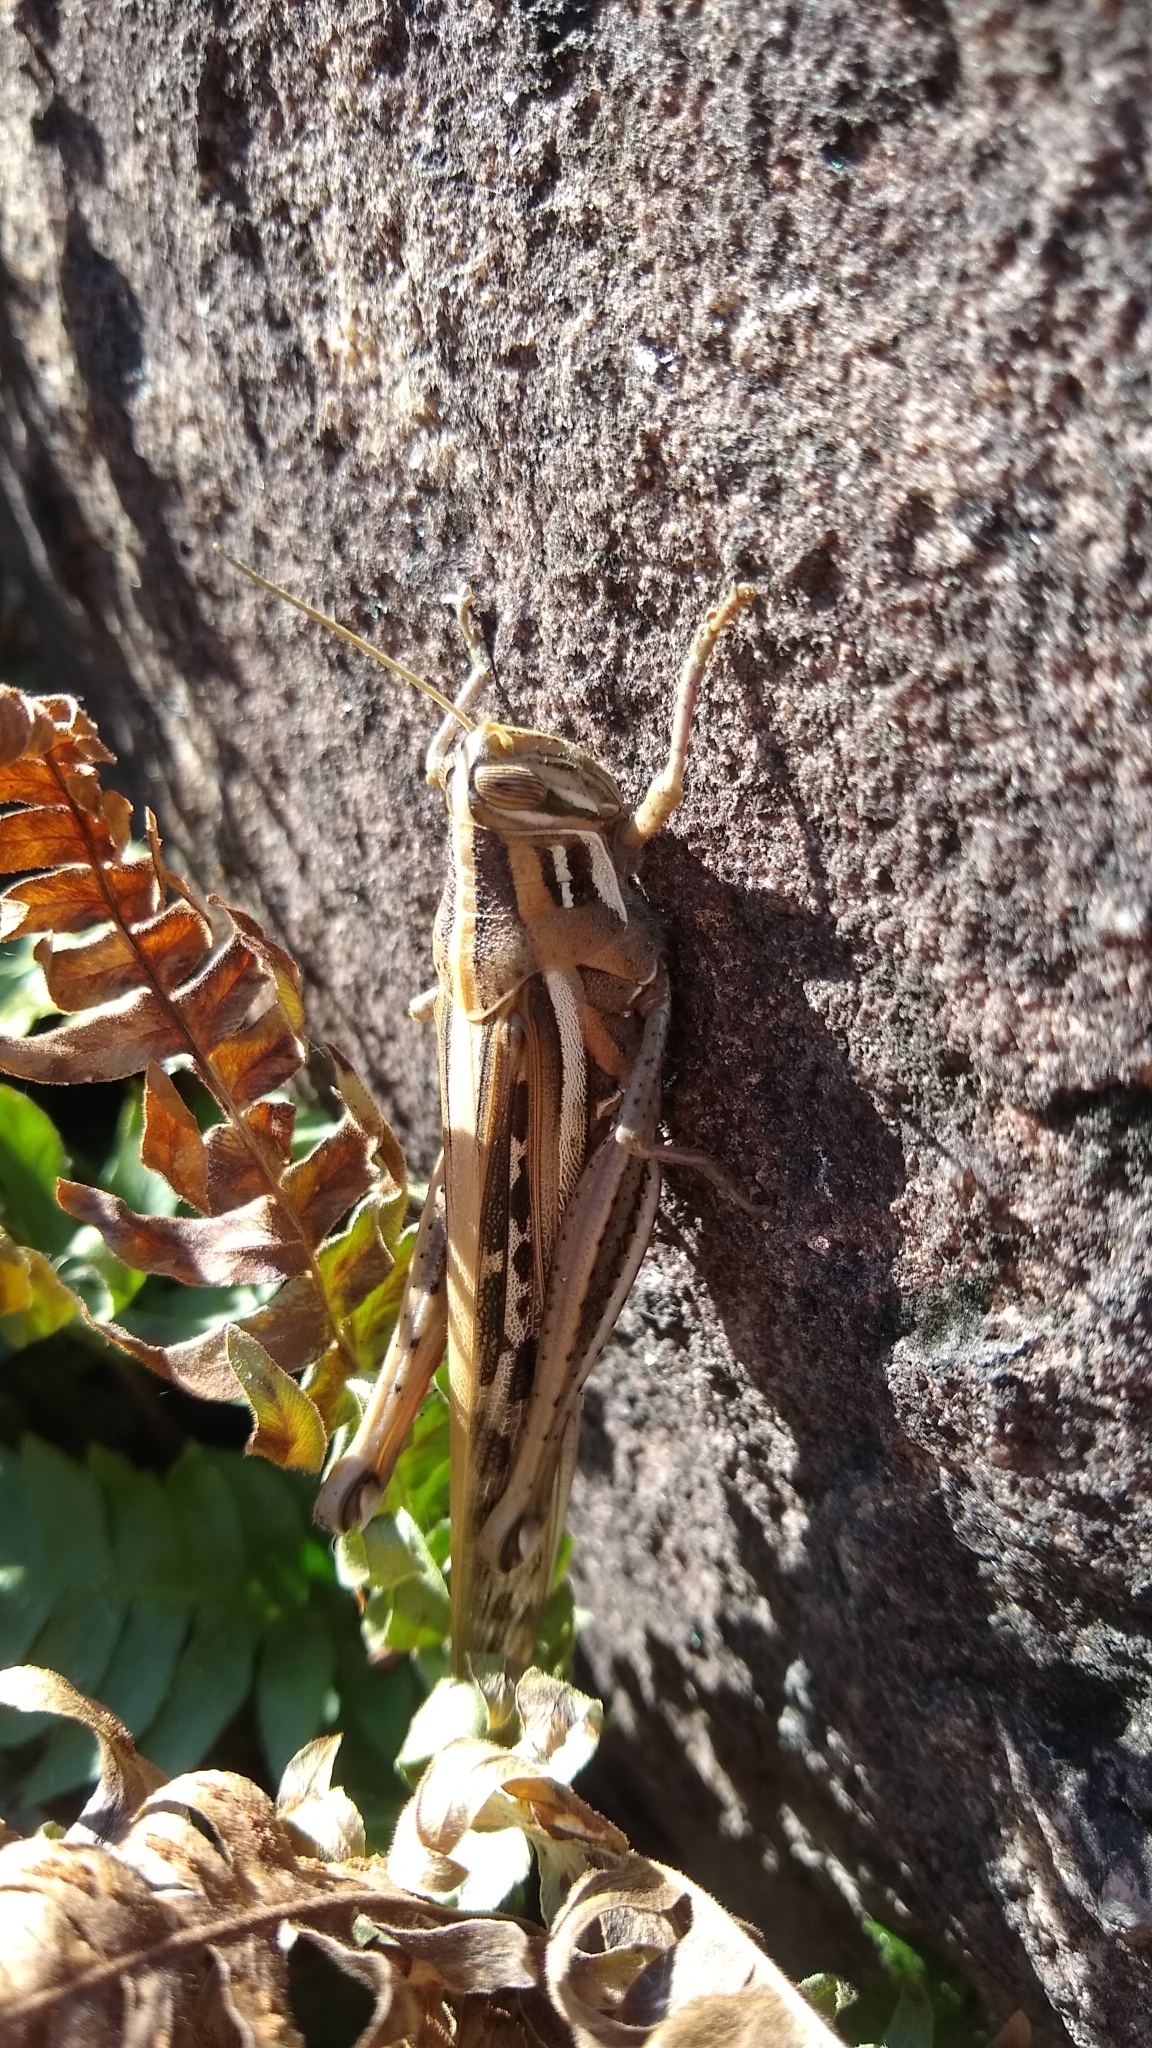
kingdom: Animalia
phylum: Arthropoda
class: Insecta
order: Orthoptera
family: Acrididae
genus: Schistocerca
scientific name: Schistocerca cancellata
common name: South american locust
